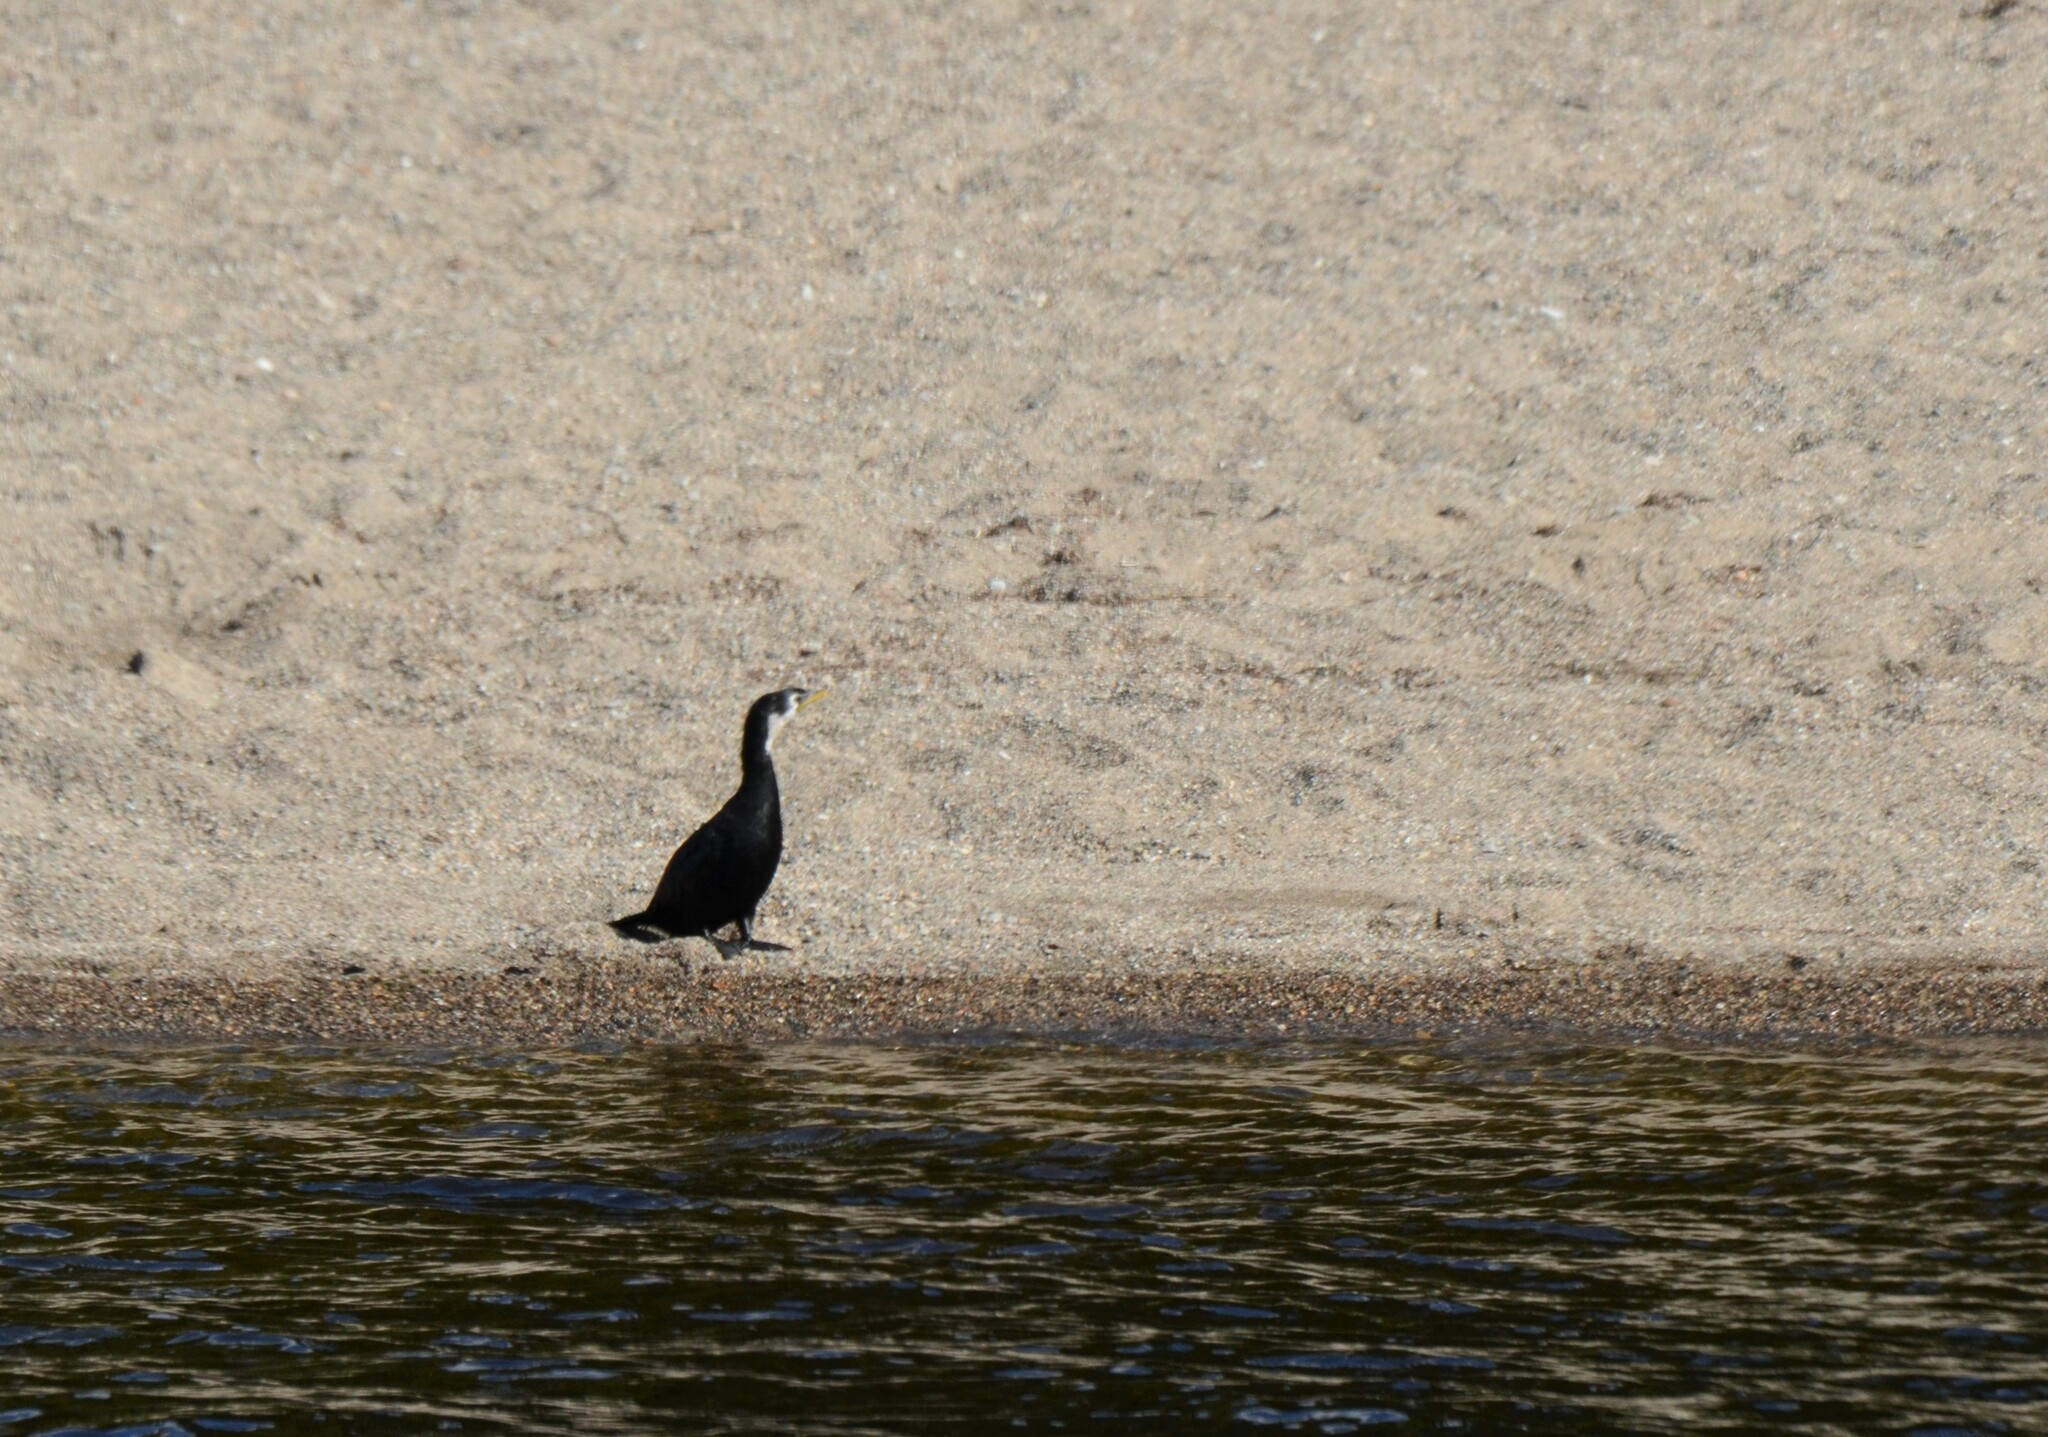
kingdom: Animalia
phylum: Chordata
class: Aves
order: Suliformes
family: Phalacrocoracidae
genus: Microcarbo
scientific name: Microcarbo melanoleucos
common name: Little pied cormorant
